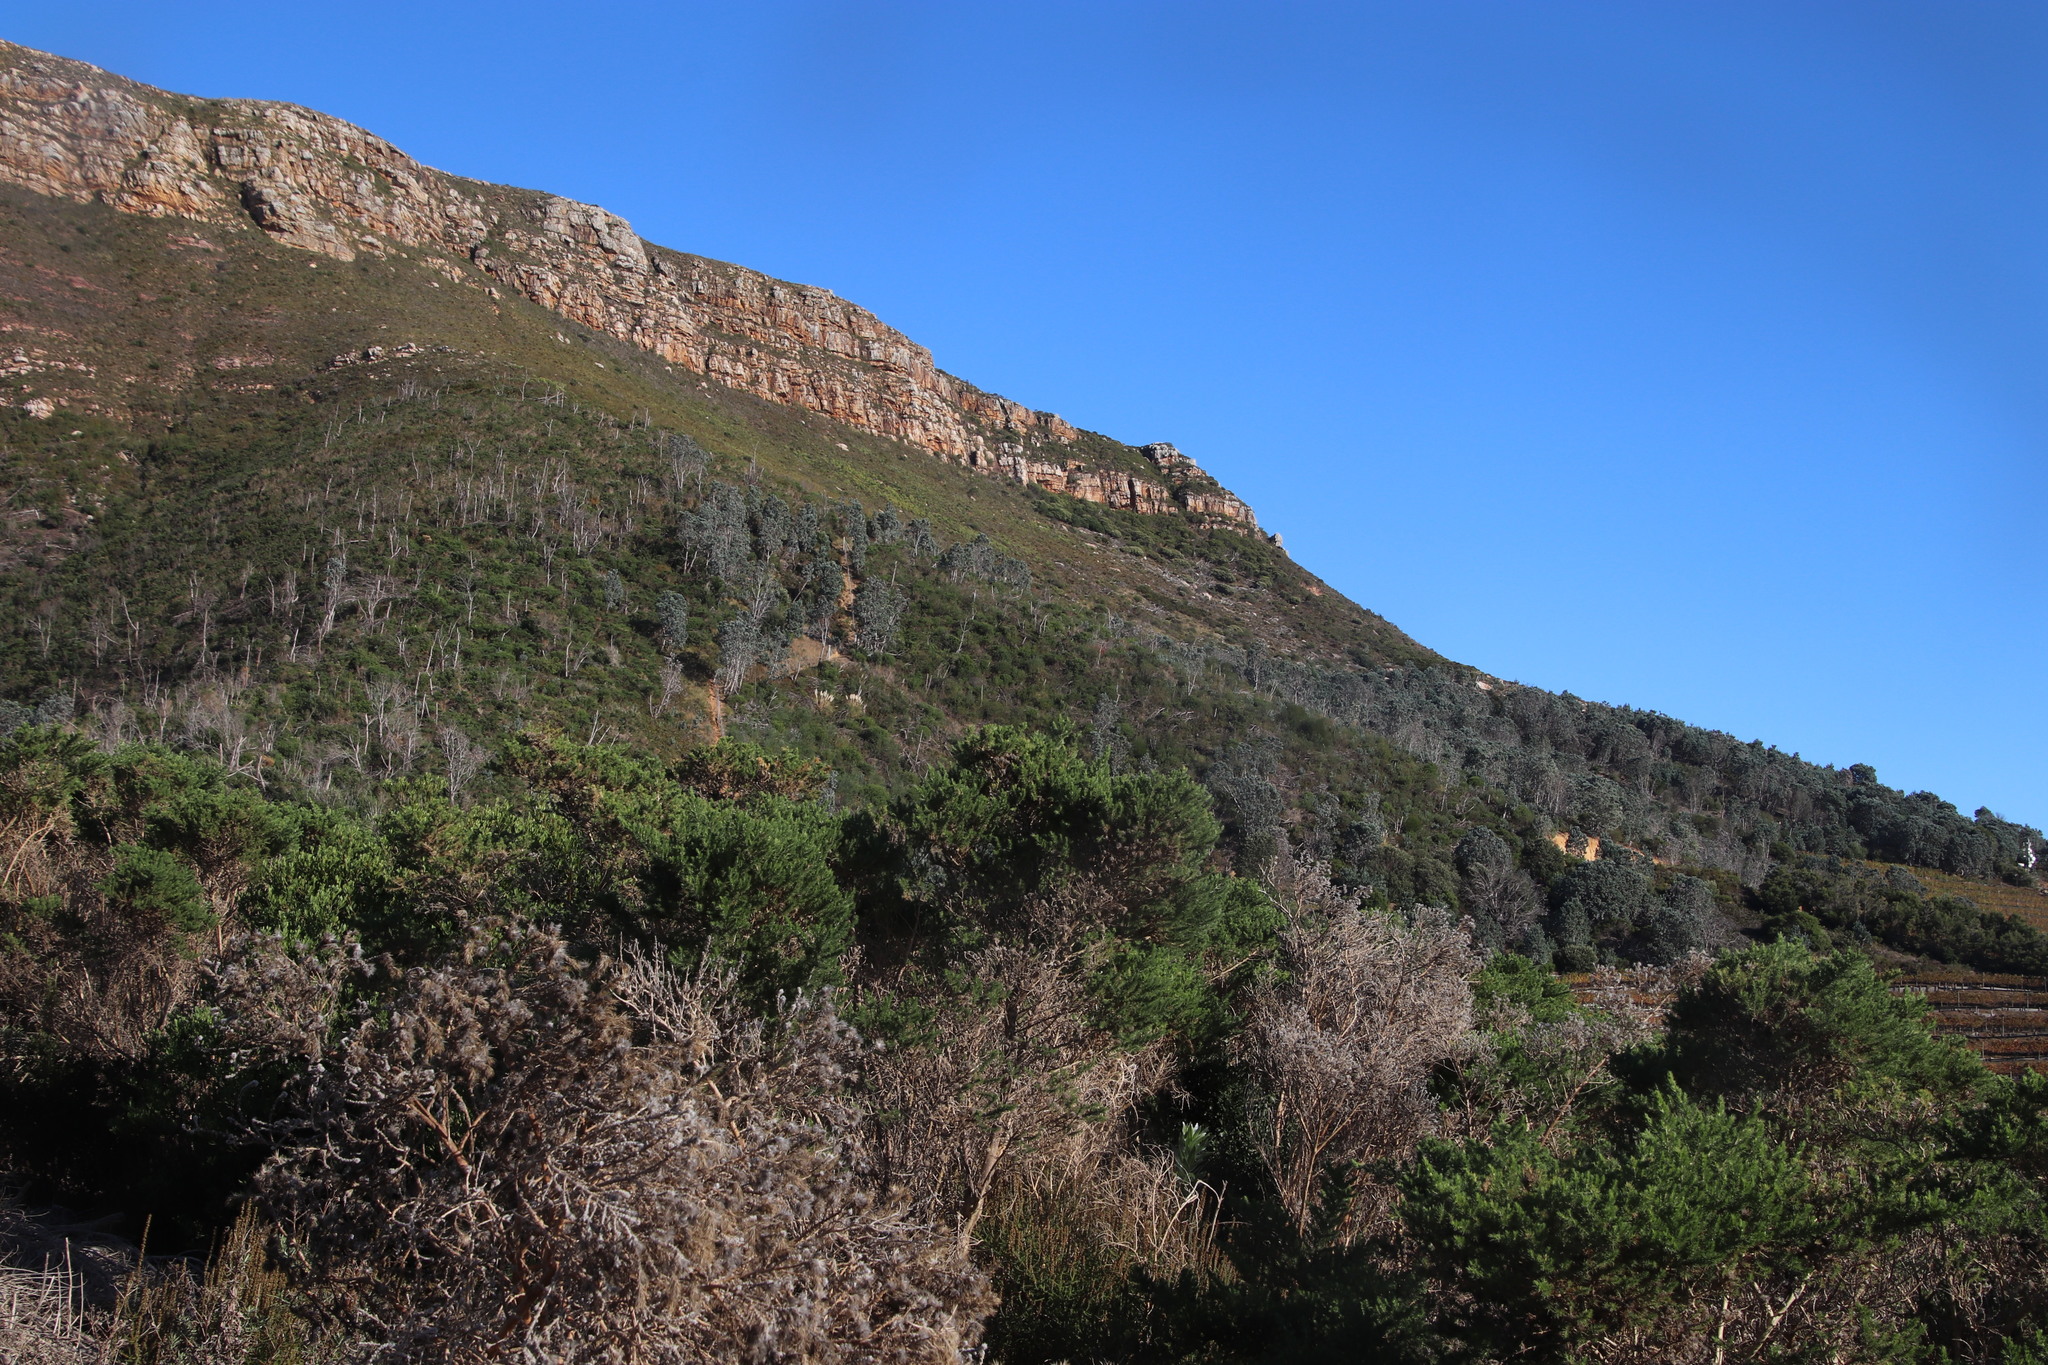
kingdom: Plantae
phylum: Tracheophyta
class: Liliopsida
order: Poales
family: Poaceae
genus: Cortaderia
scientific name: Cortaderia selloana
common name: Uruguayan pampas grass
